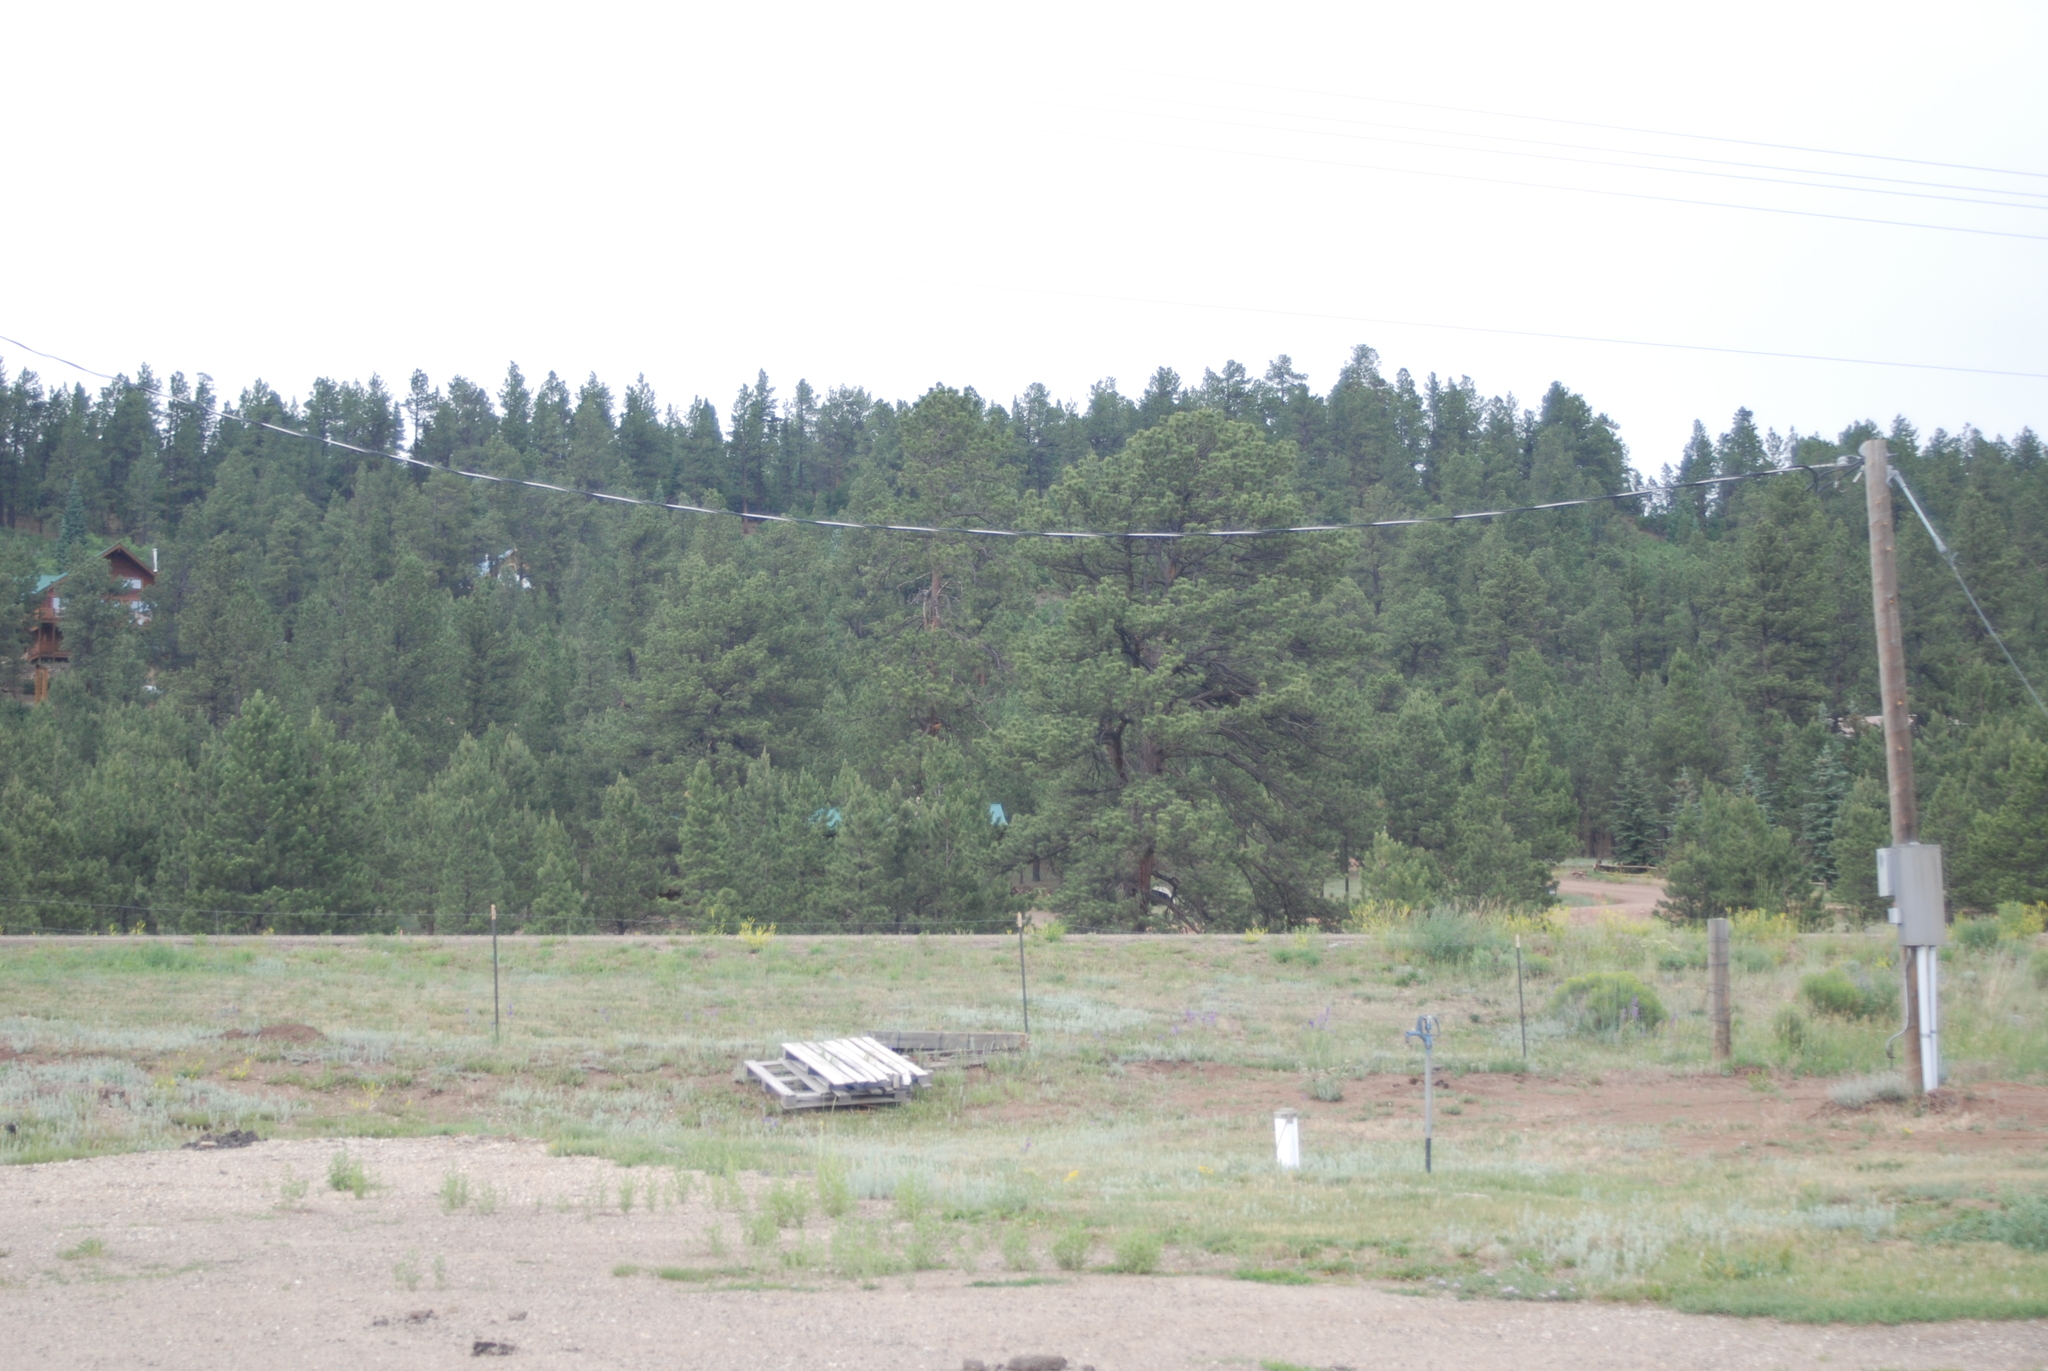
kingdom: Plantae
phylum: Tracheophyta
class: Pinopsida
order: Pinales
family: Pinaceae
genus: Pinus
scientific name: Pinus ponderosa
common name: Western yellow-pine
